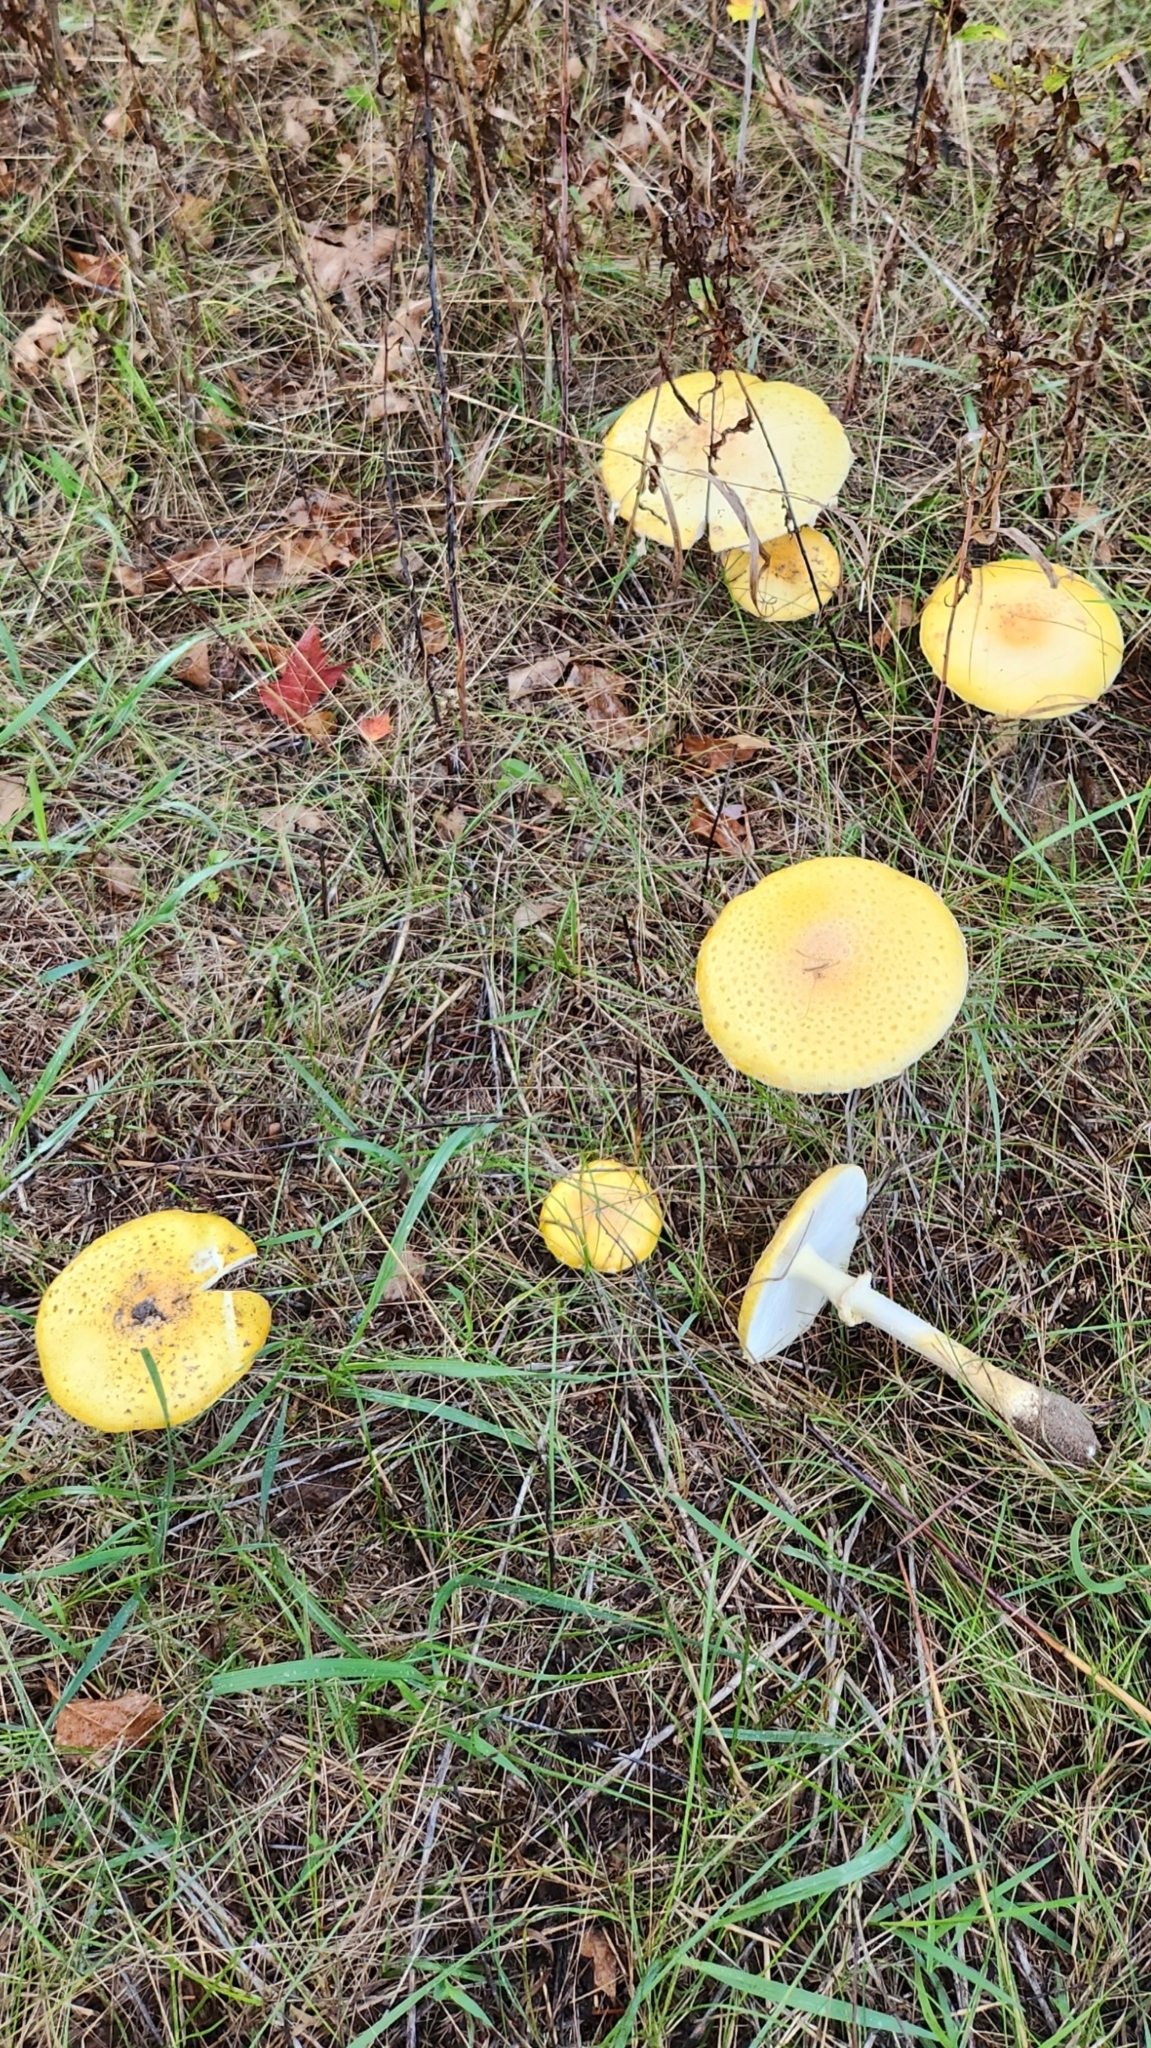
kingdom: Fungi
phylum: Basidiomycota
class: Agaricomycetes
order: Agaricales
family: Amanitaceae
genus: Amanita
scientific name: Amanita muscaria
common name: Fly agaric
